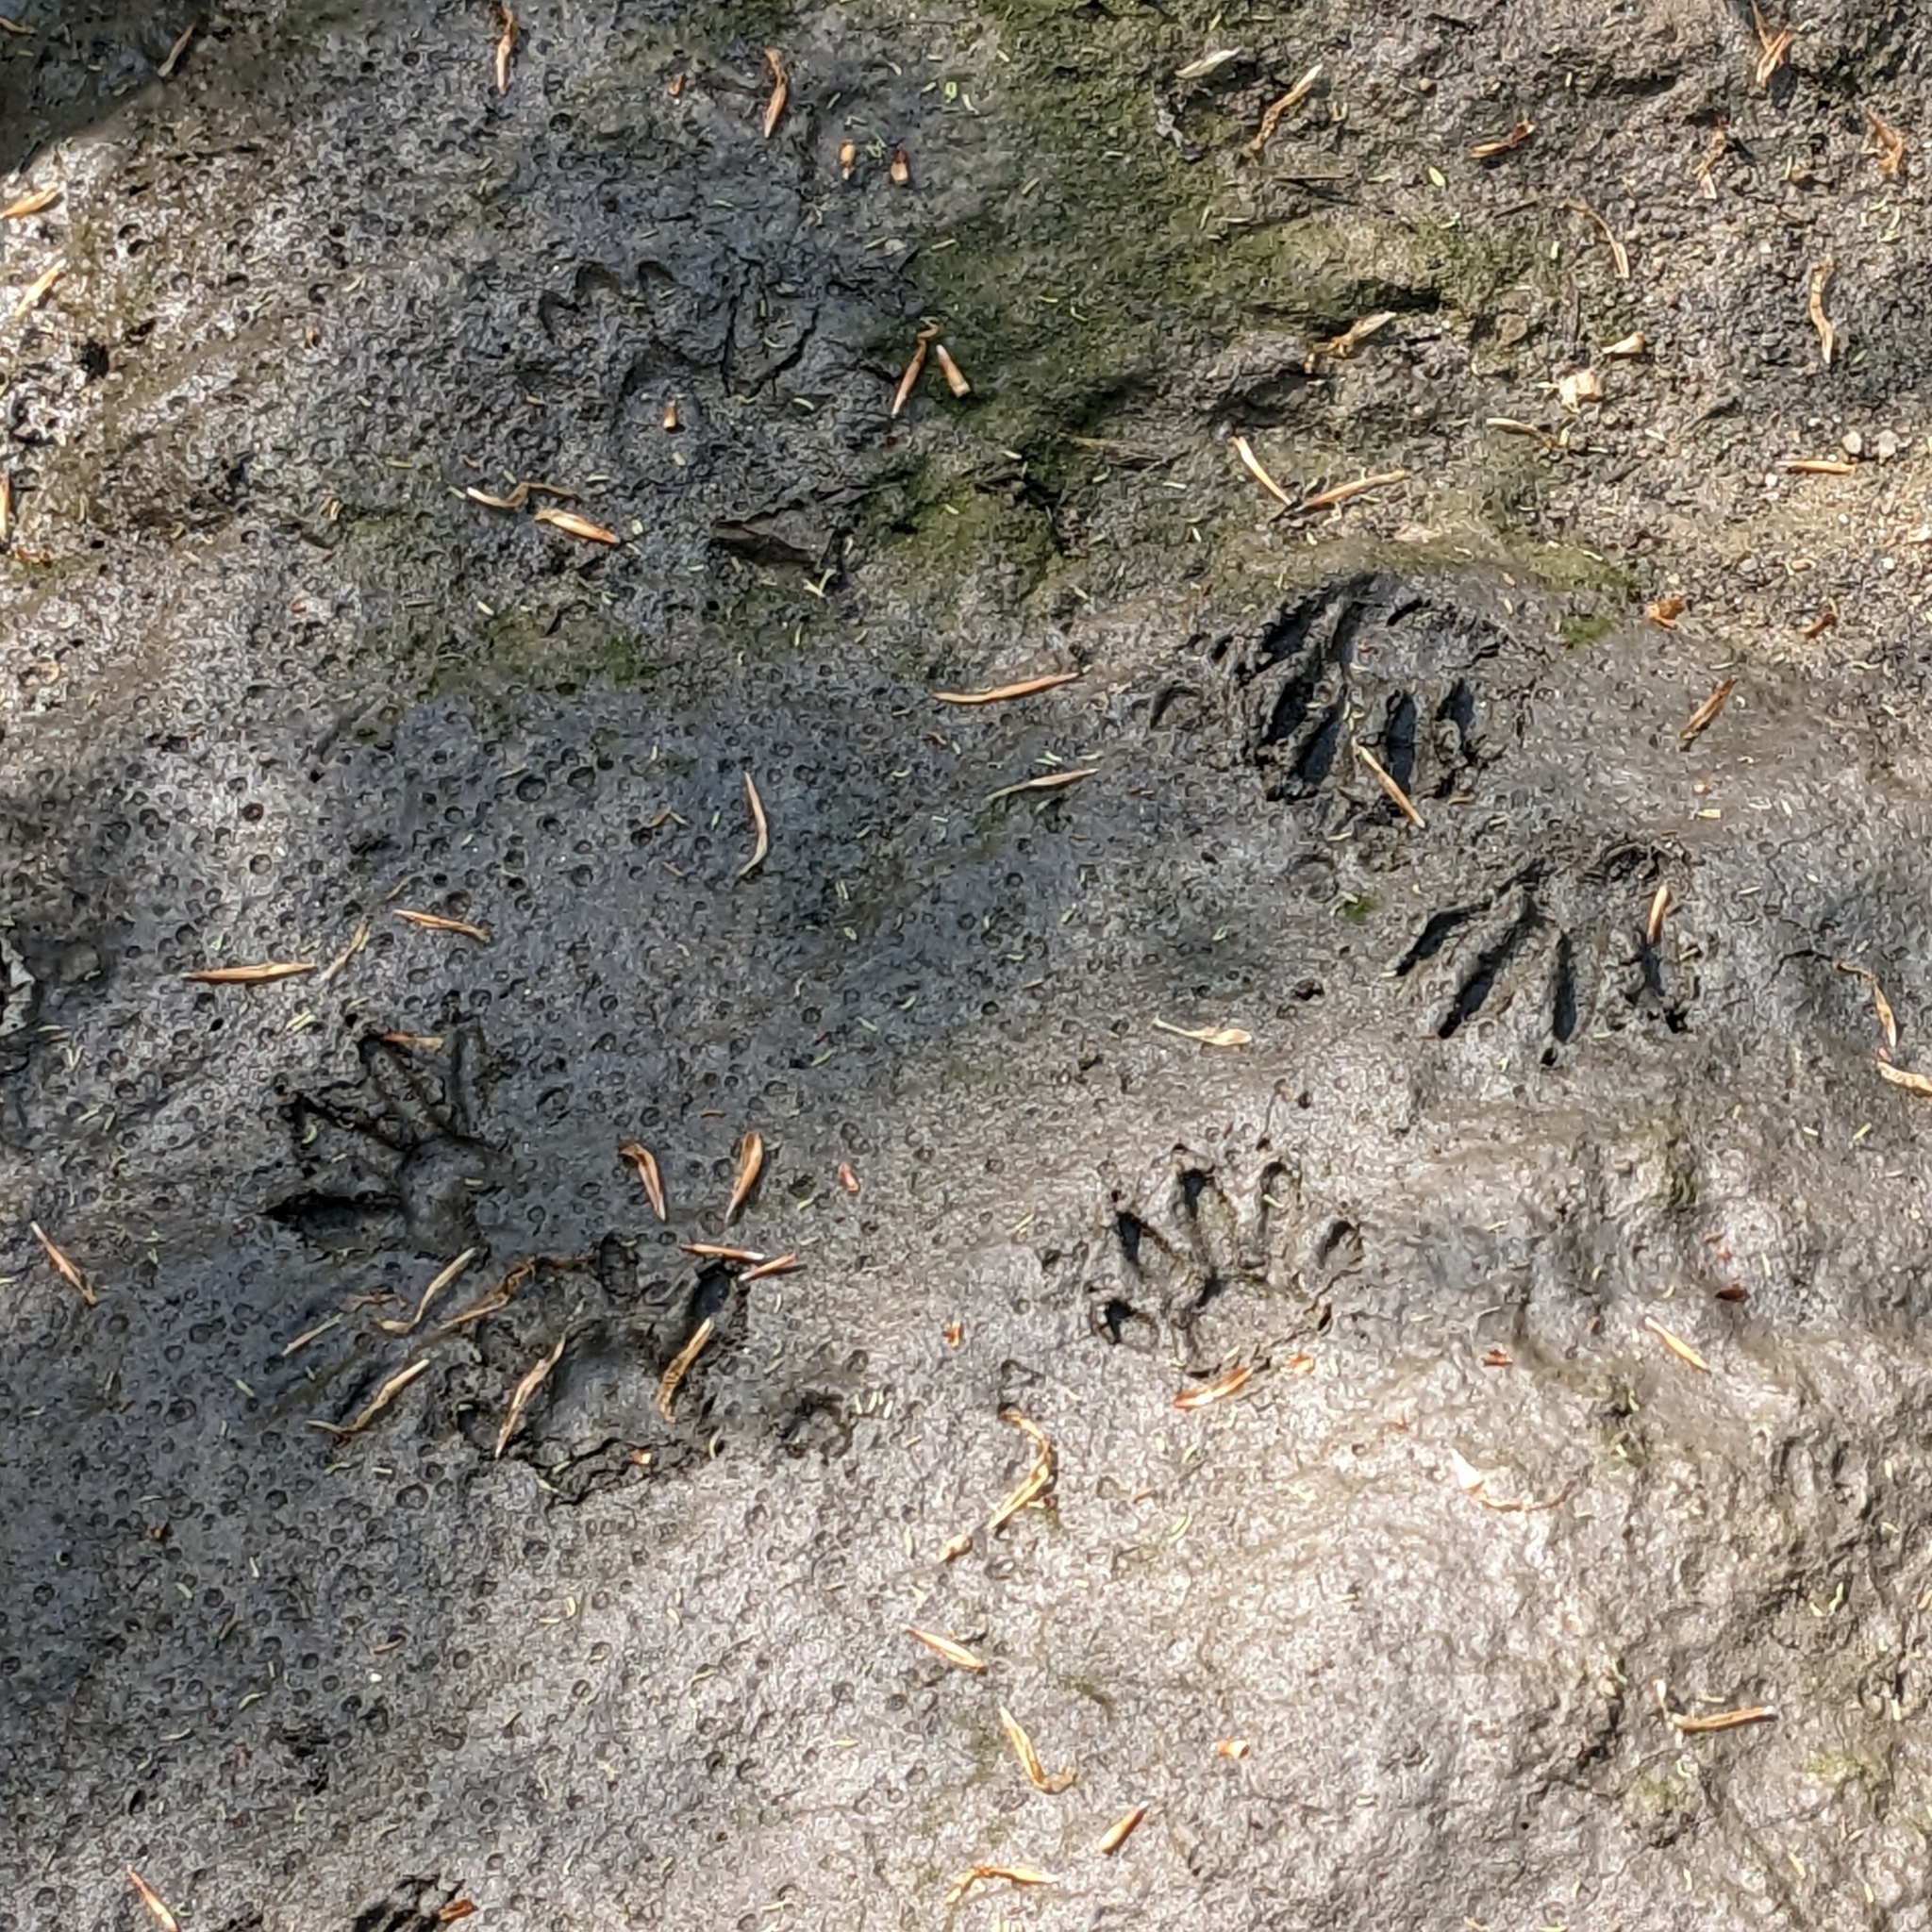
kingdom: Animalia
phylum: Chordata
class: Mammalia
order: Carnivora
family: Procyonidae
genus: Procyon
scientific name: Procyon lotor
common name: Raccoon
